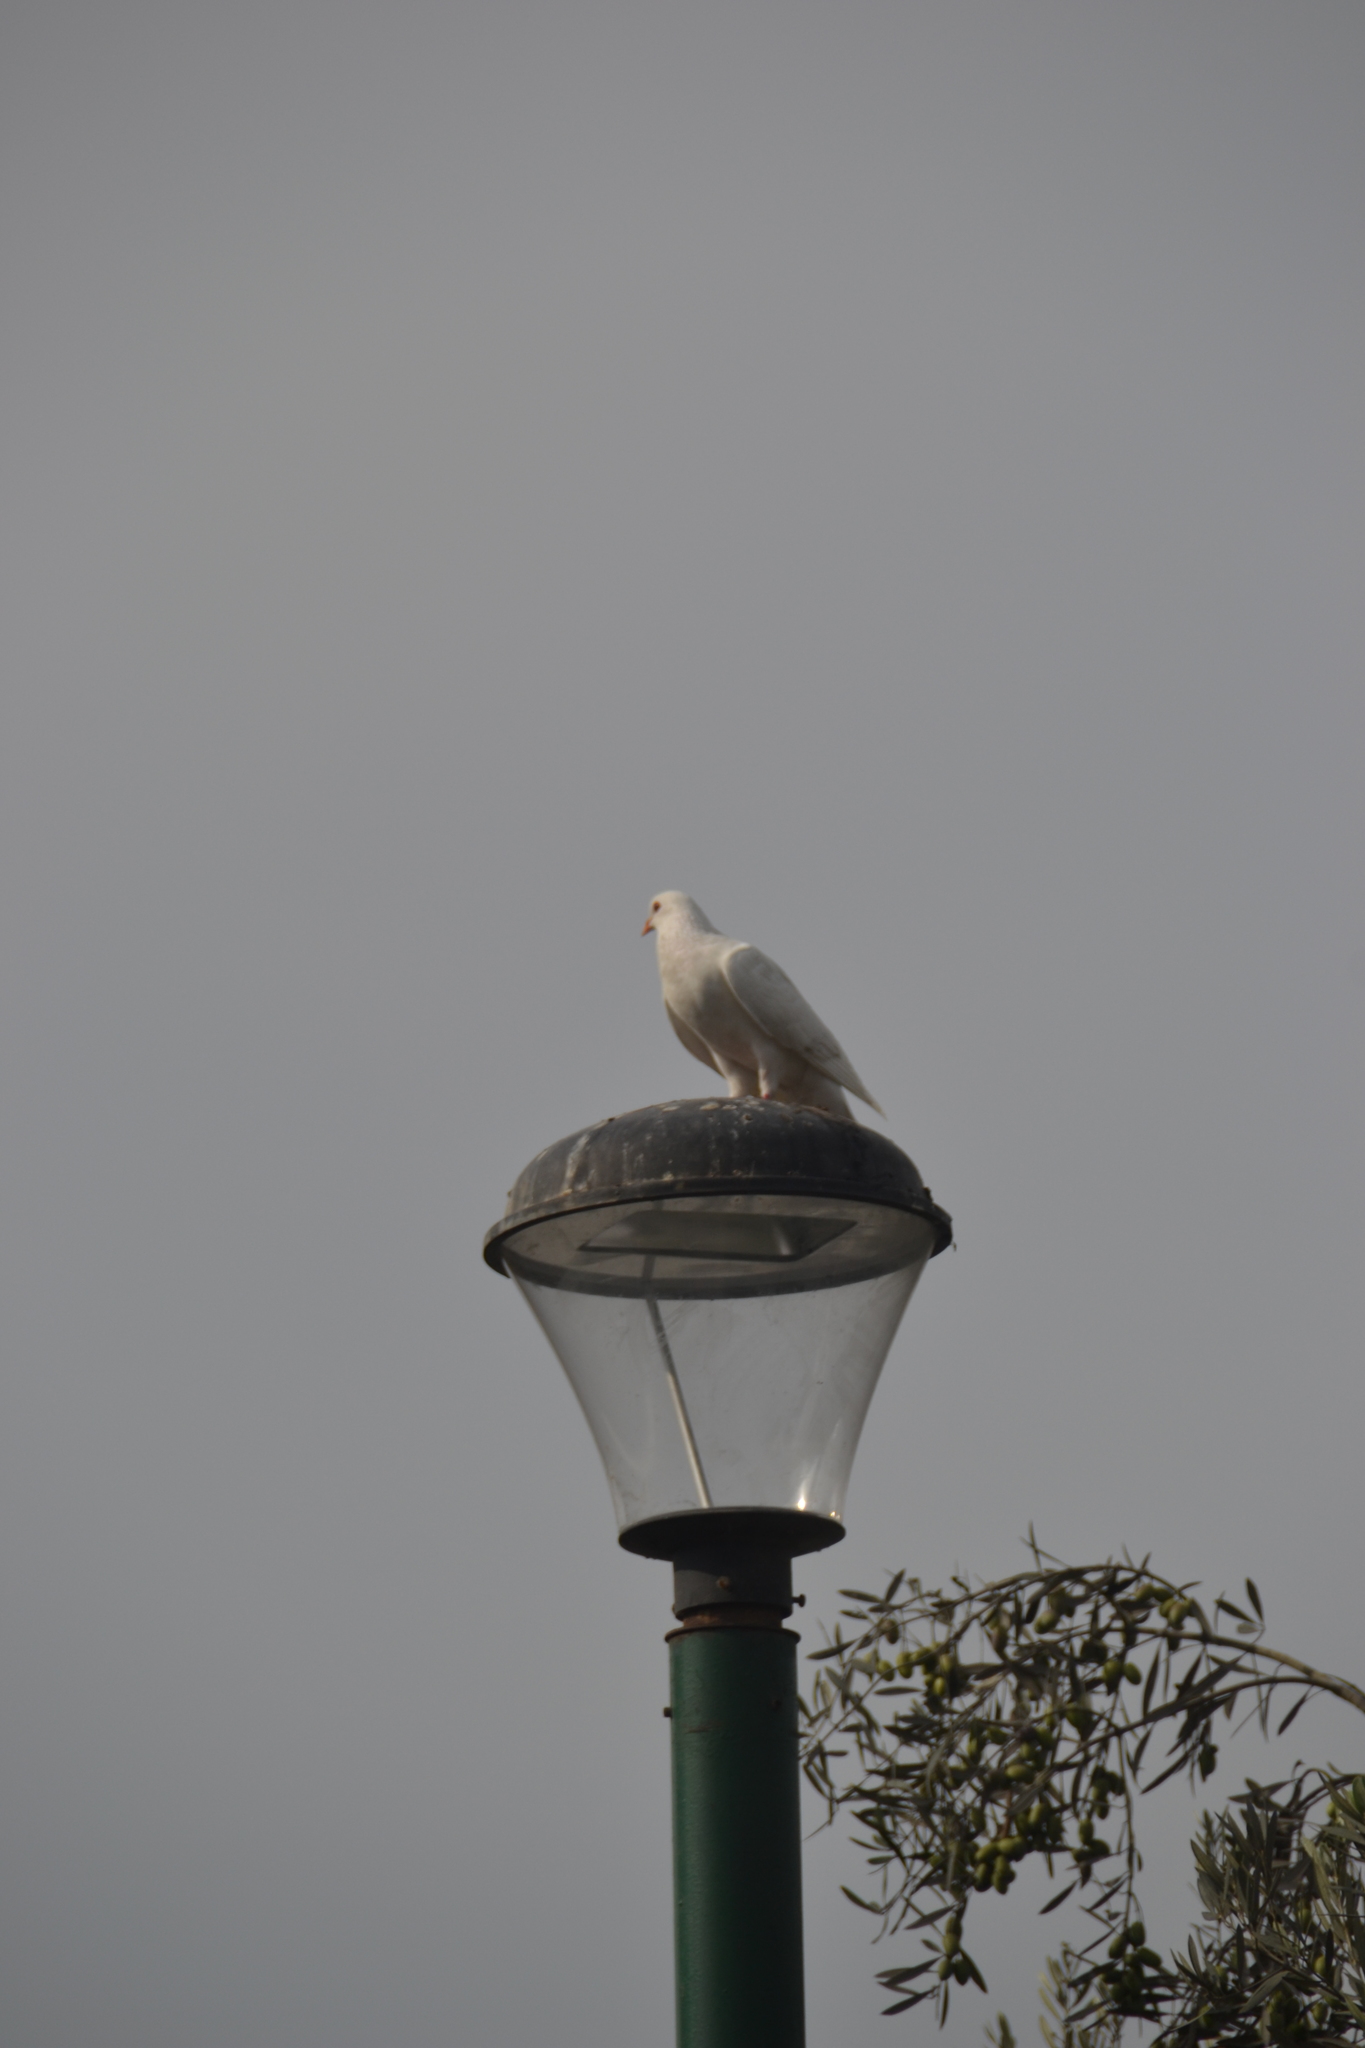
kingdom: Animalia
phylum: Chordata
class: Aves
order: Columbiformes
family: Columbidae
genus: Columba
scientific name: Columba livia
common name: Rock pigeon
